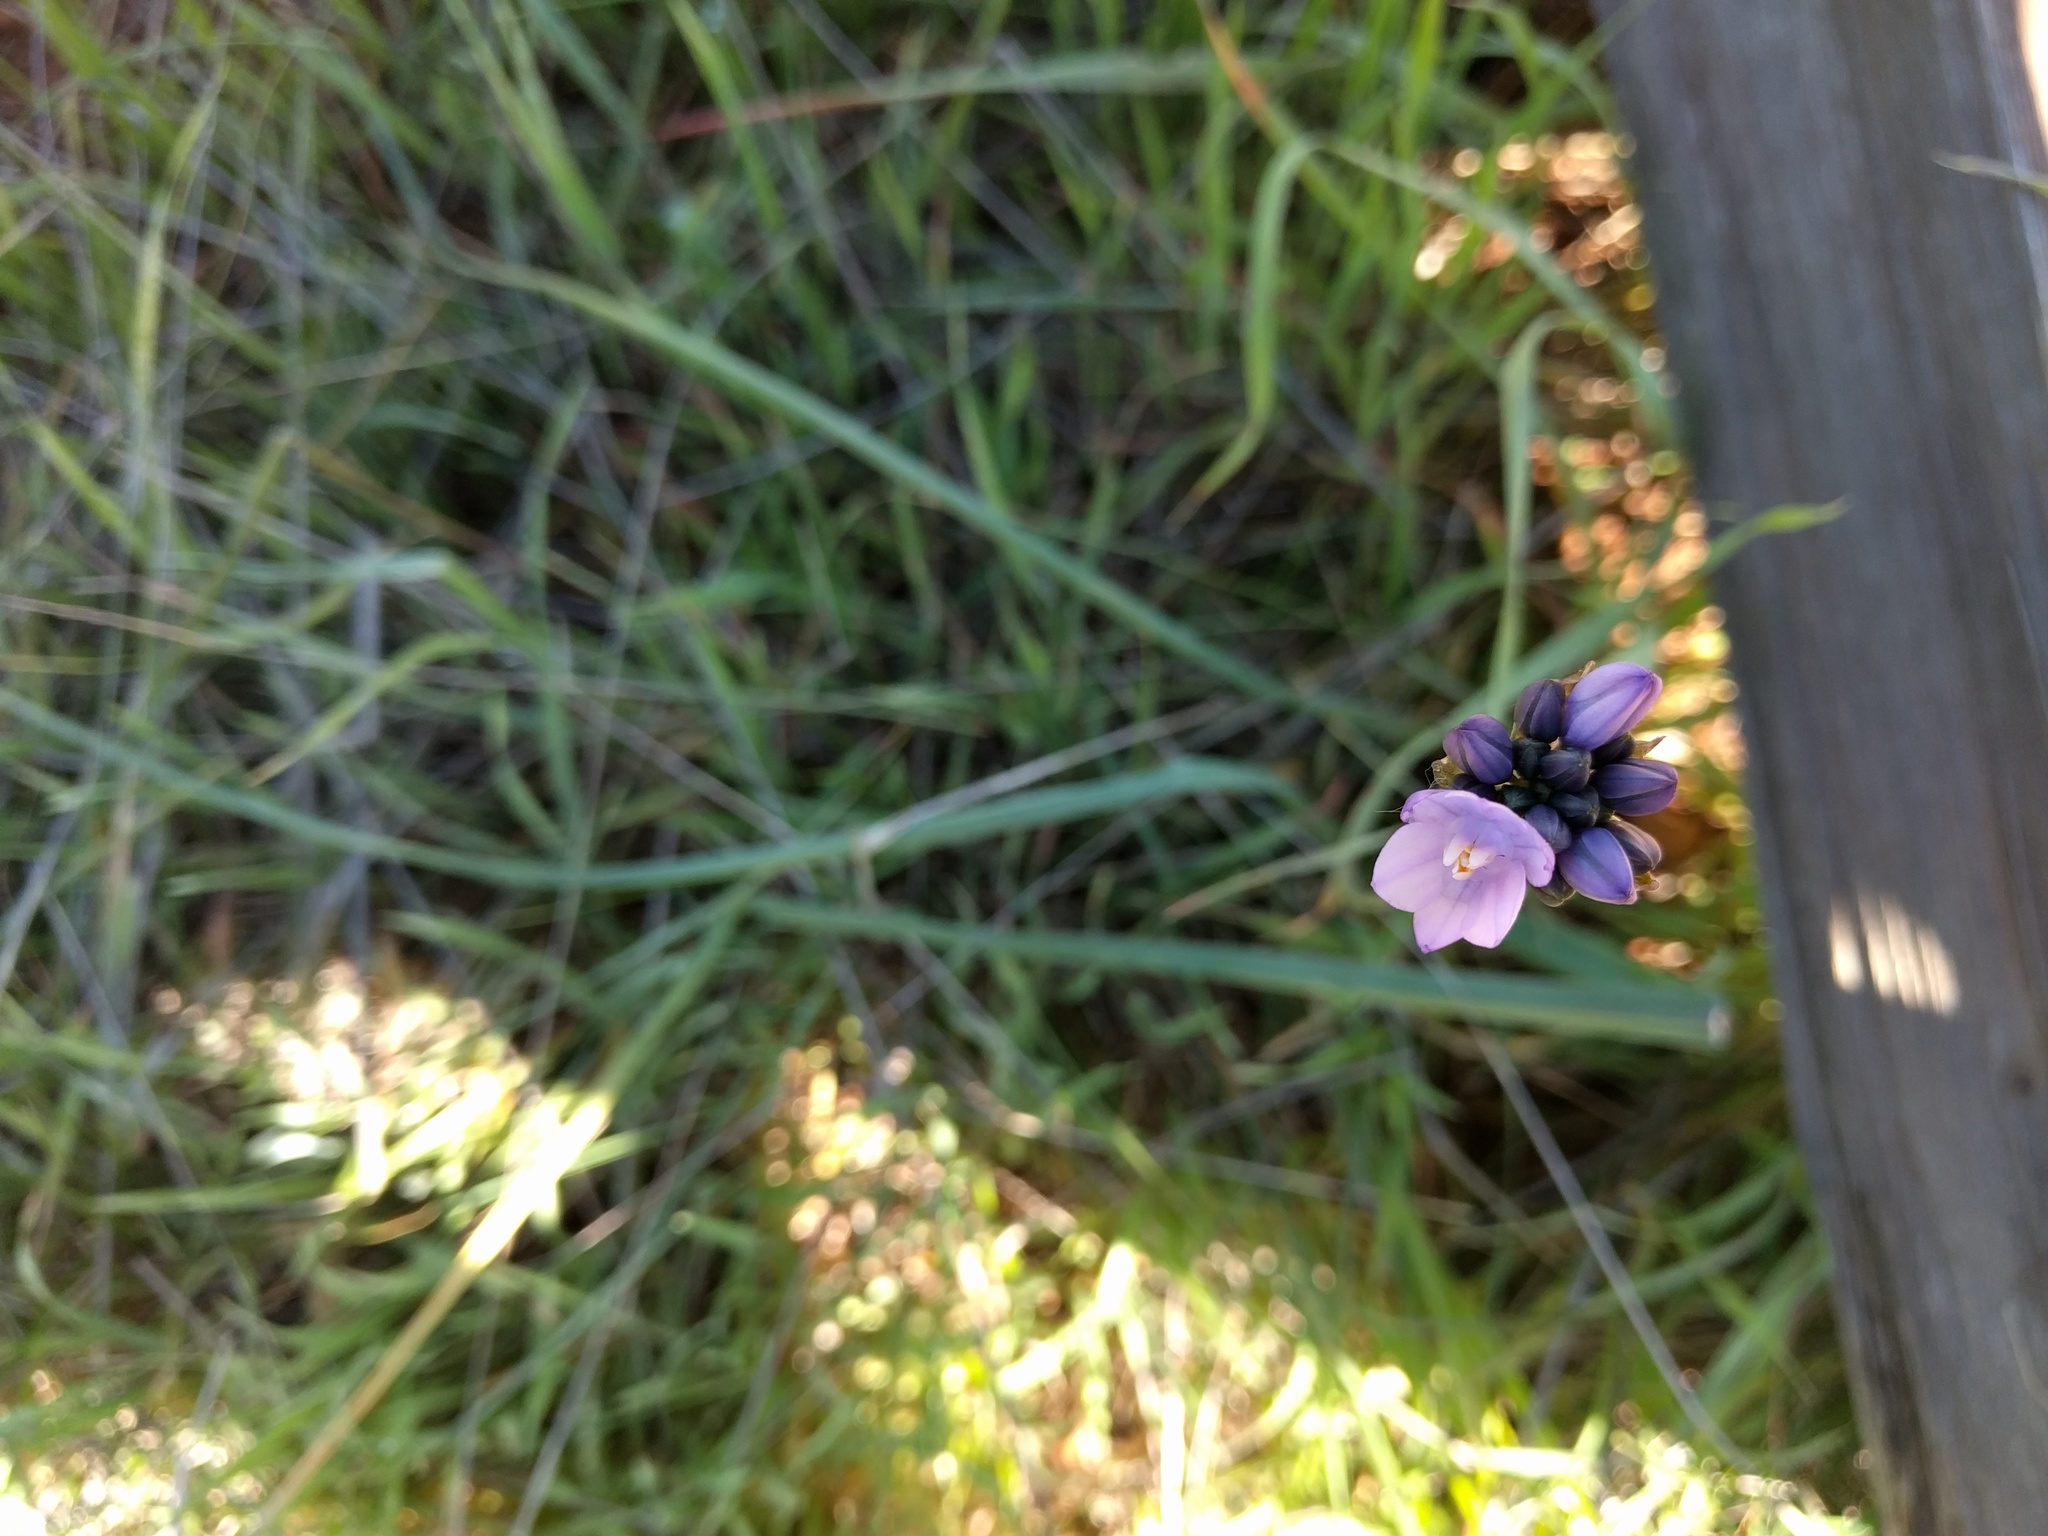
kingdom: Plantae
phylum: Tracheophyta
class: Liliopsida
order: Asparagales
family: Asparagaceae
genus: Dipterostemon
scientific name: Dipterostemon capitatus
